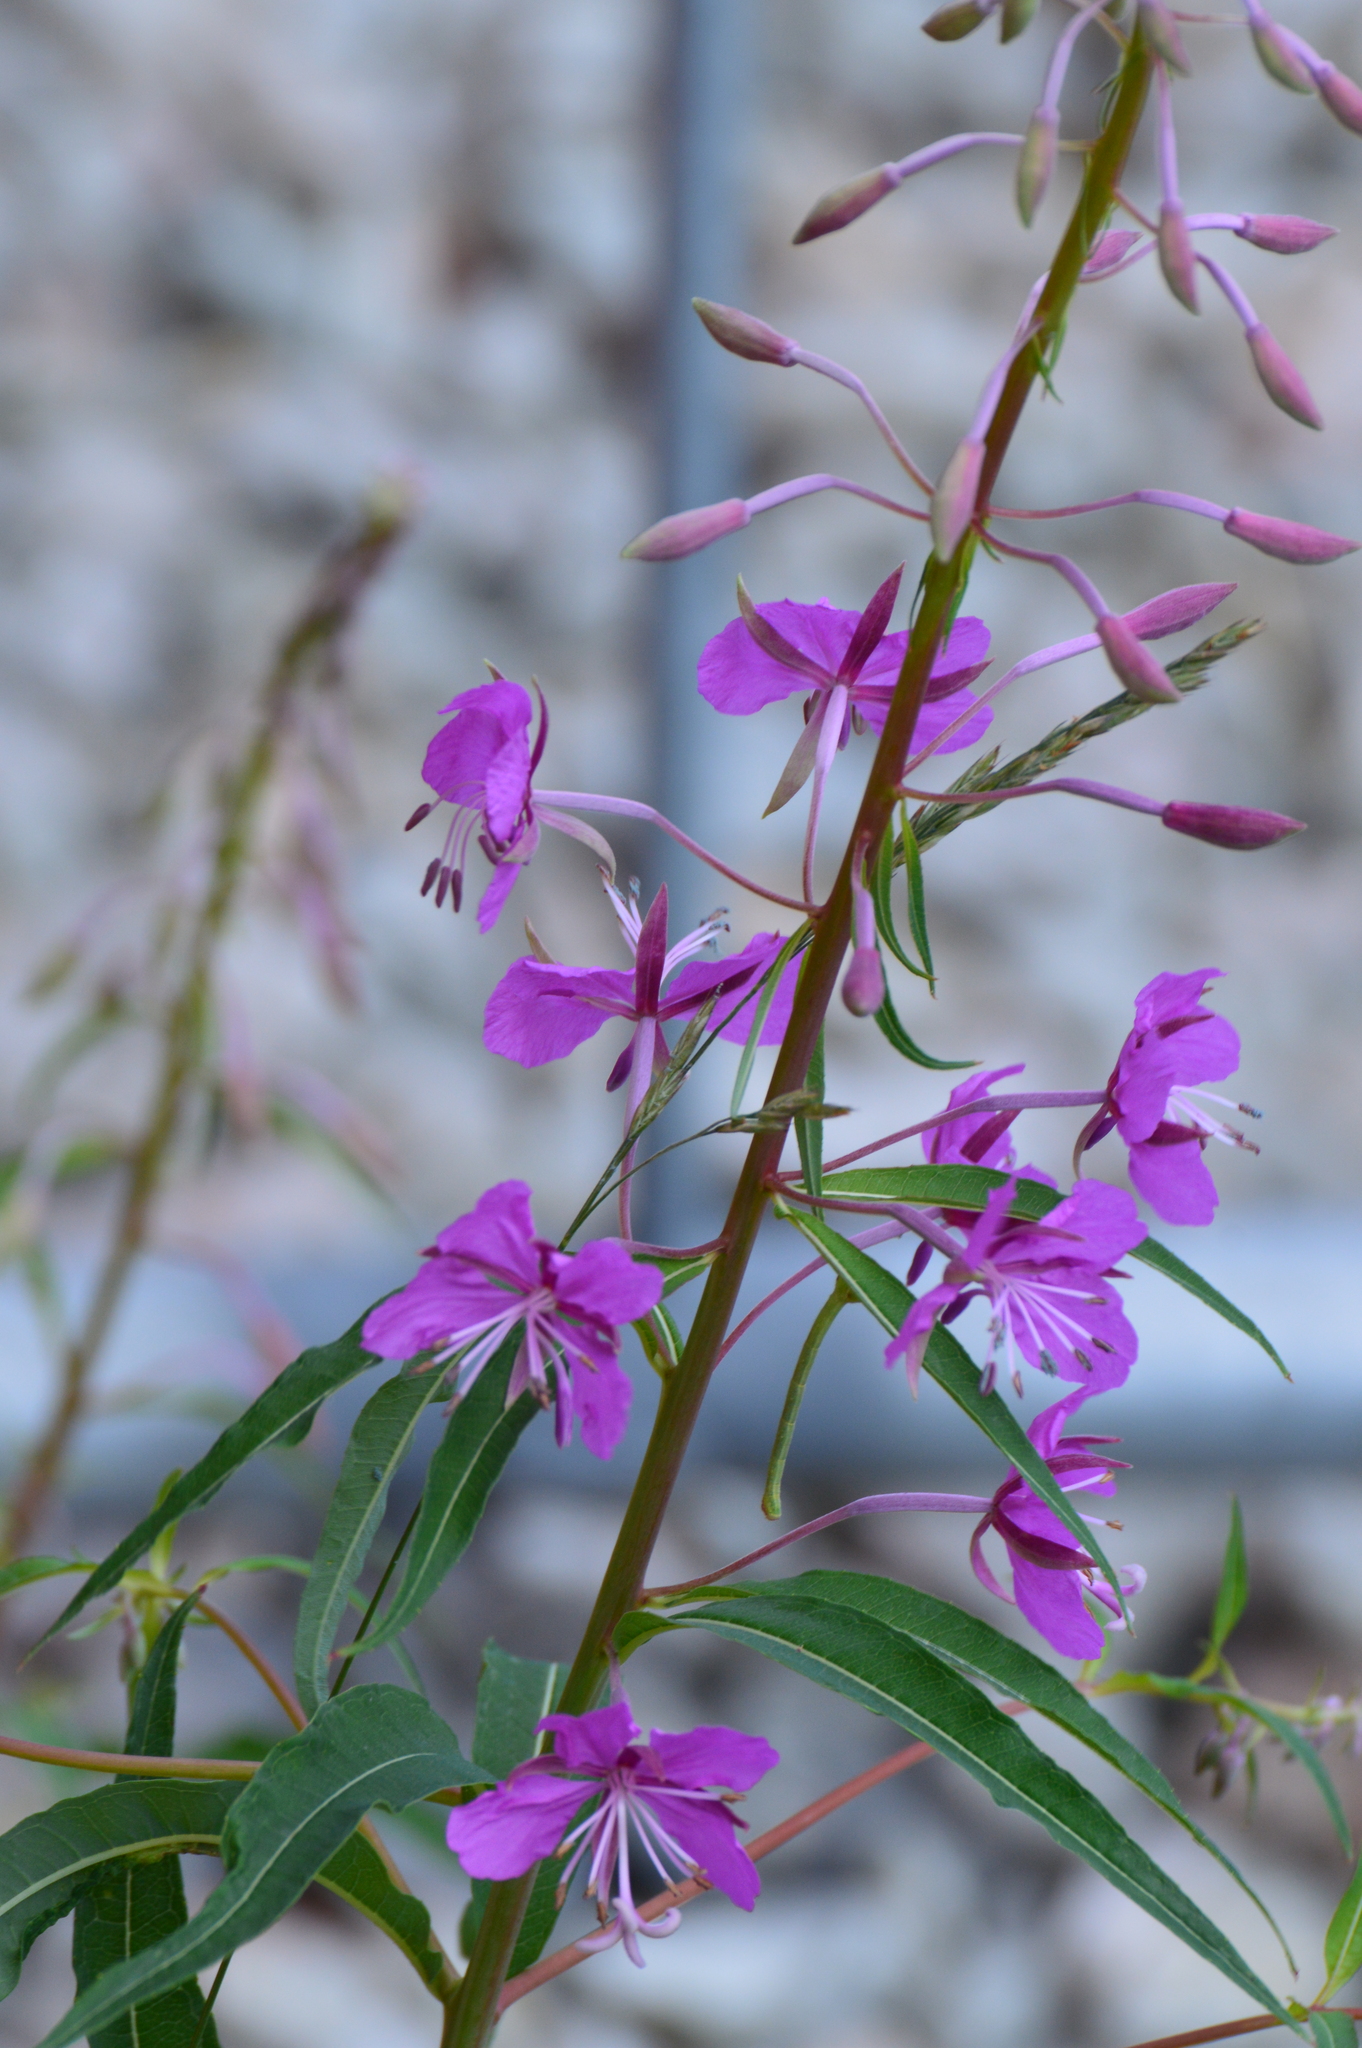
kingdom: Plantae
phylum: Tracheophyta
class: Magnoliopsida
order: Myrtales
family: Onagraceae
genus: Chamaenerion
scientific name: Chamaenerion angustifolium
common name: Fireweed
